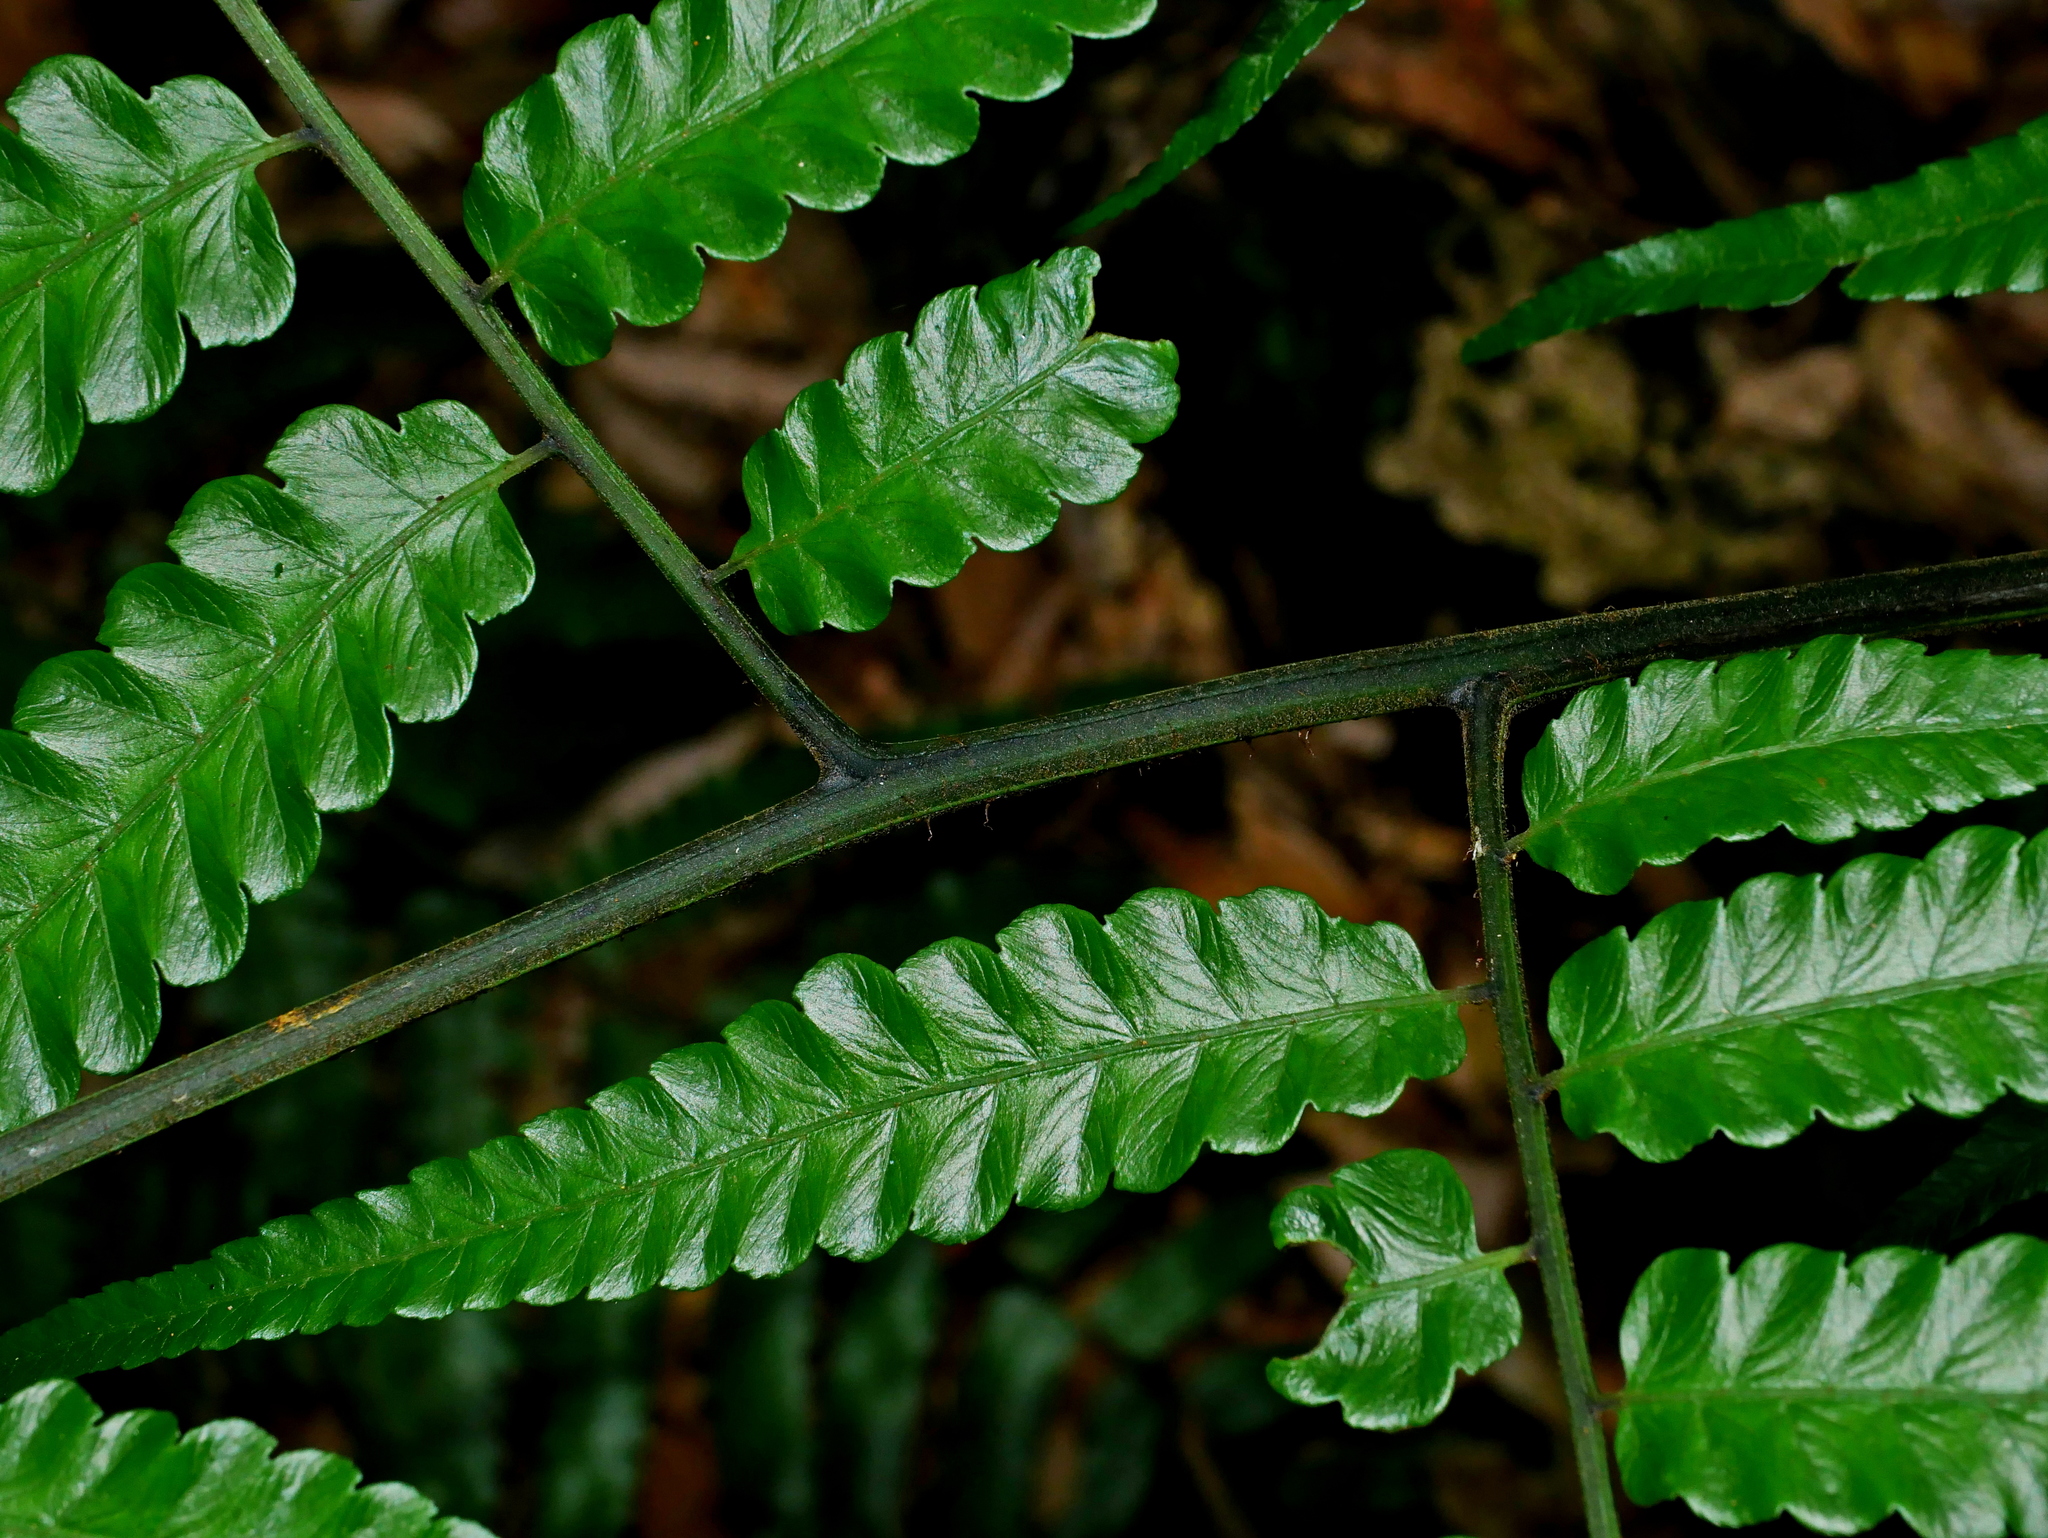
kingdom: Plantae
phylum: Tracheophyta
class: Polypodiopsida
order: Polypodiales
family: Athyriaceae
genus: Diplazium
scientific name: Diplazium dilatatum
